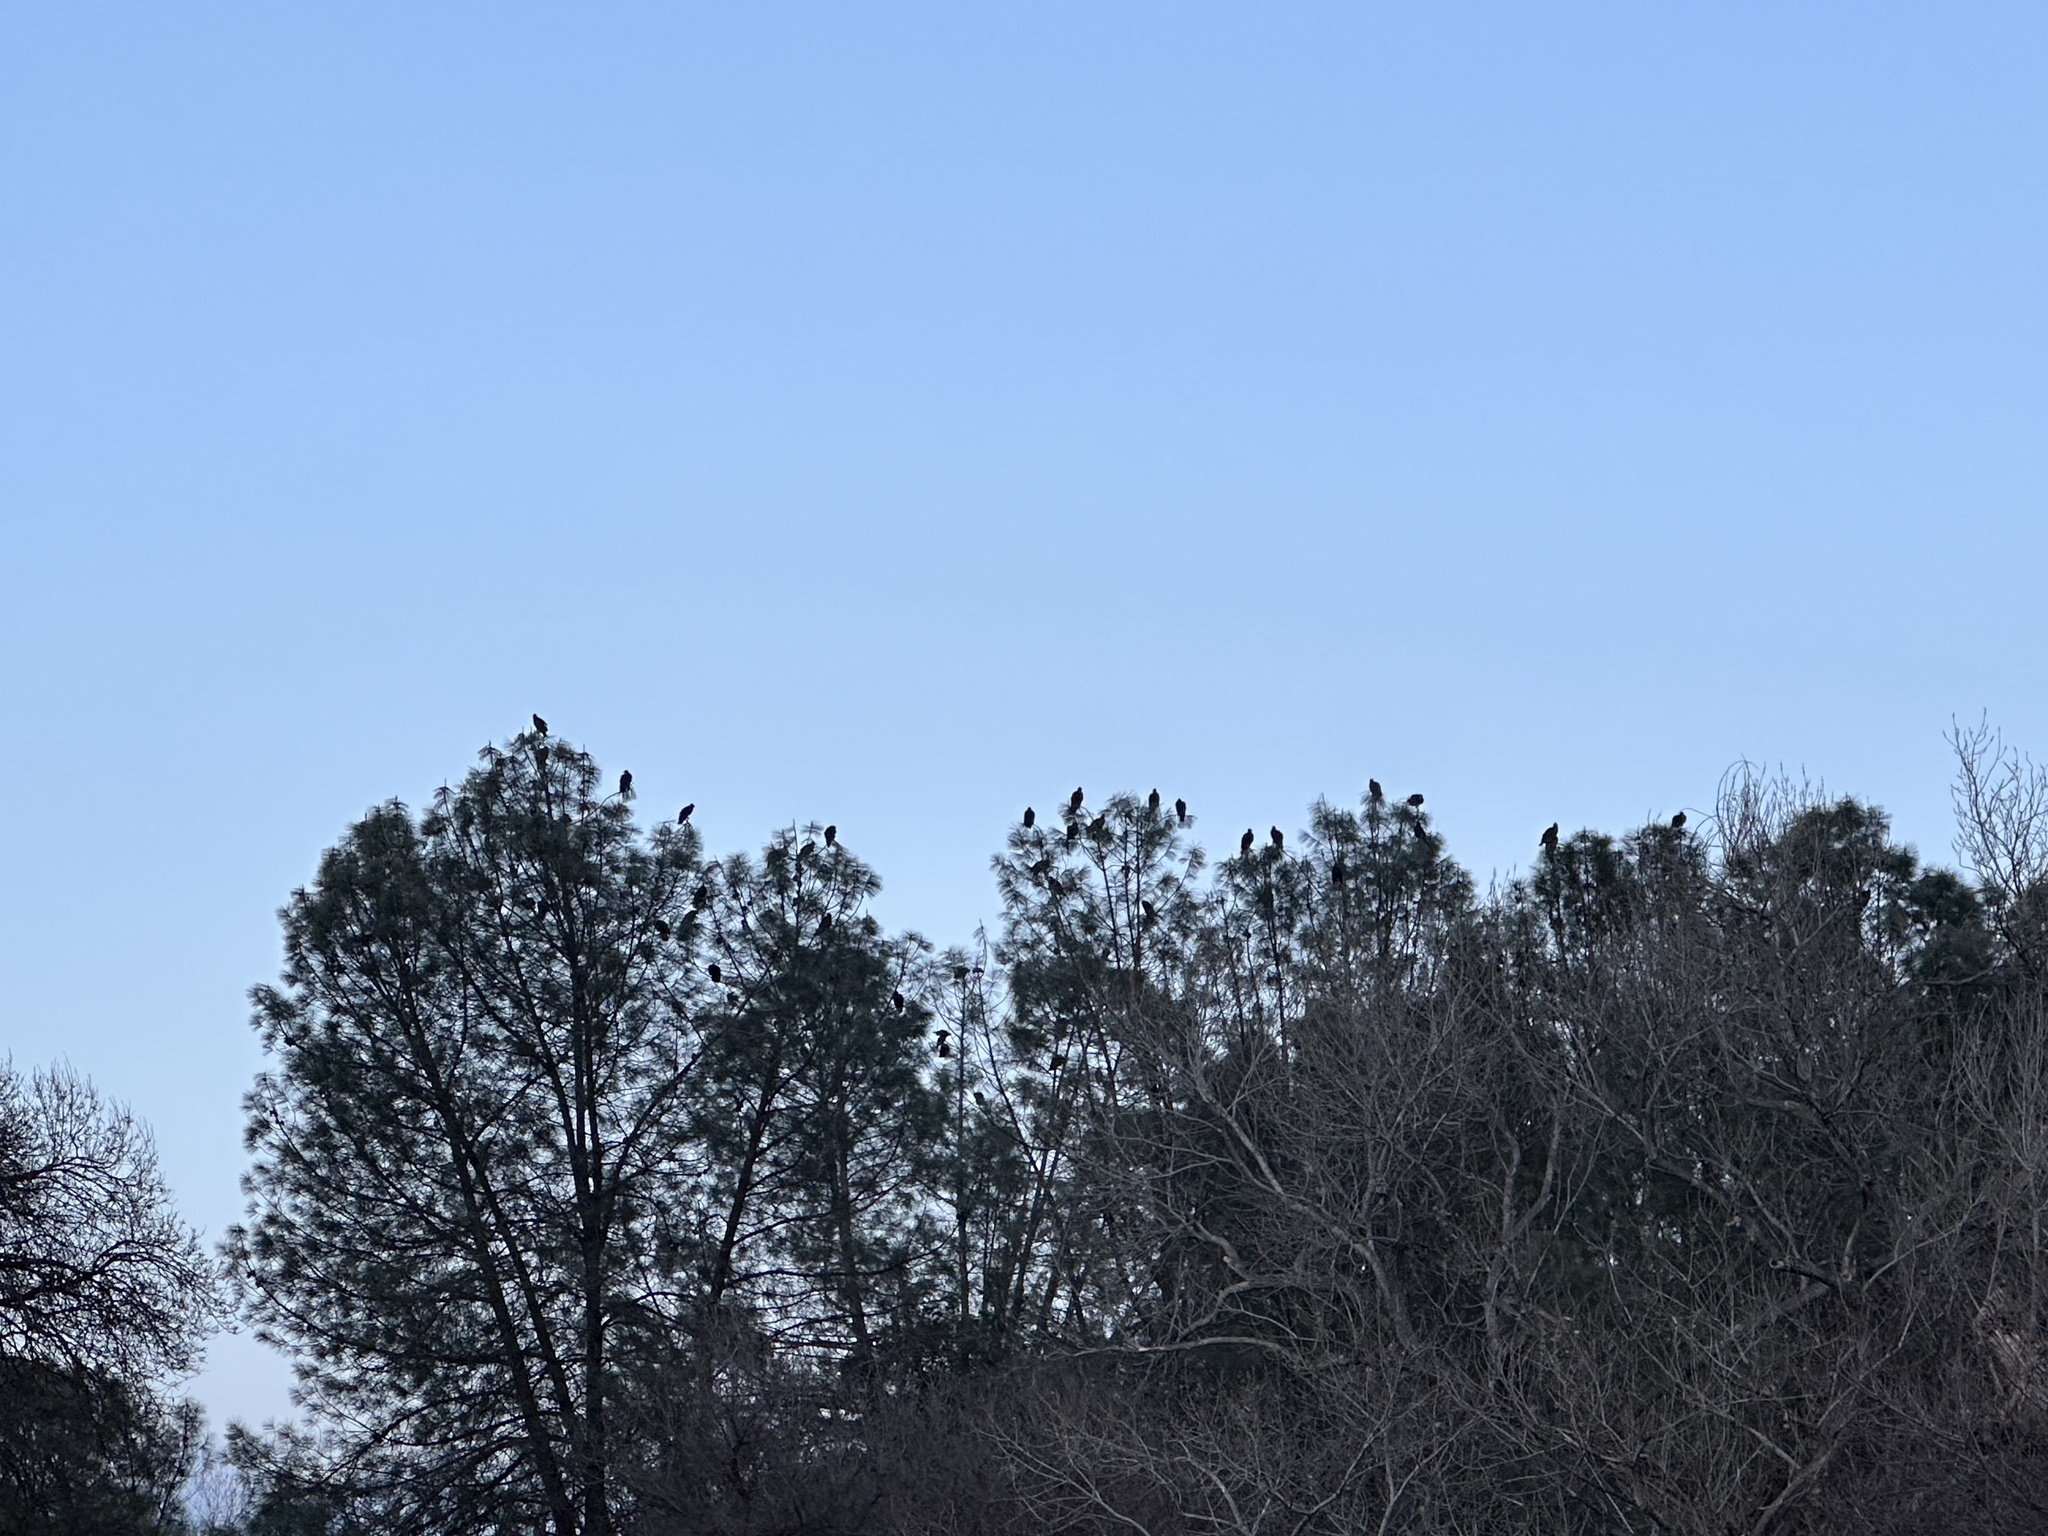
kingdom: Animalia
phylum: Chordata
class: Aves
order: Accipitriformes
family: Cathartidae
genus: Cathartes
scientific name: Cathartes aura
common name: Turkey vulture
